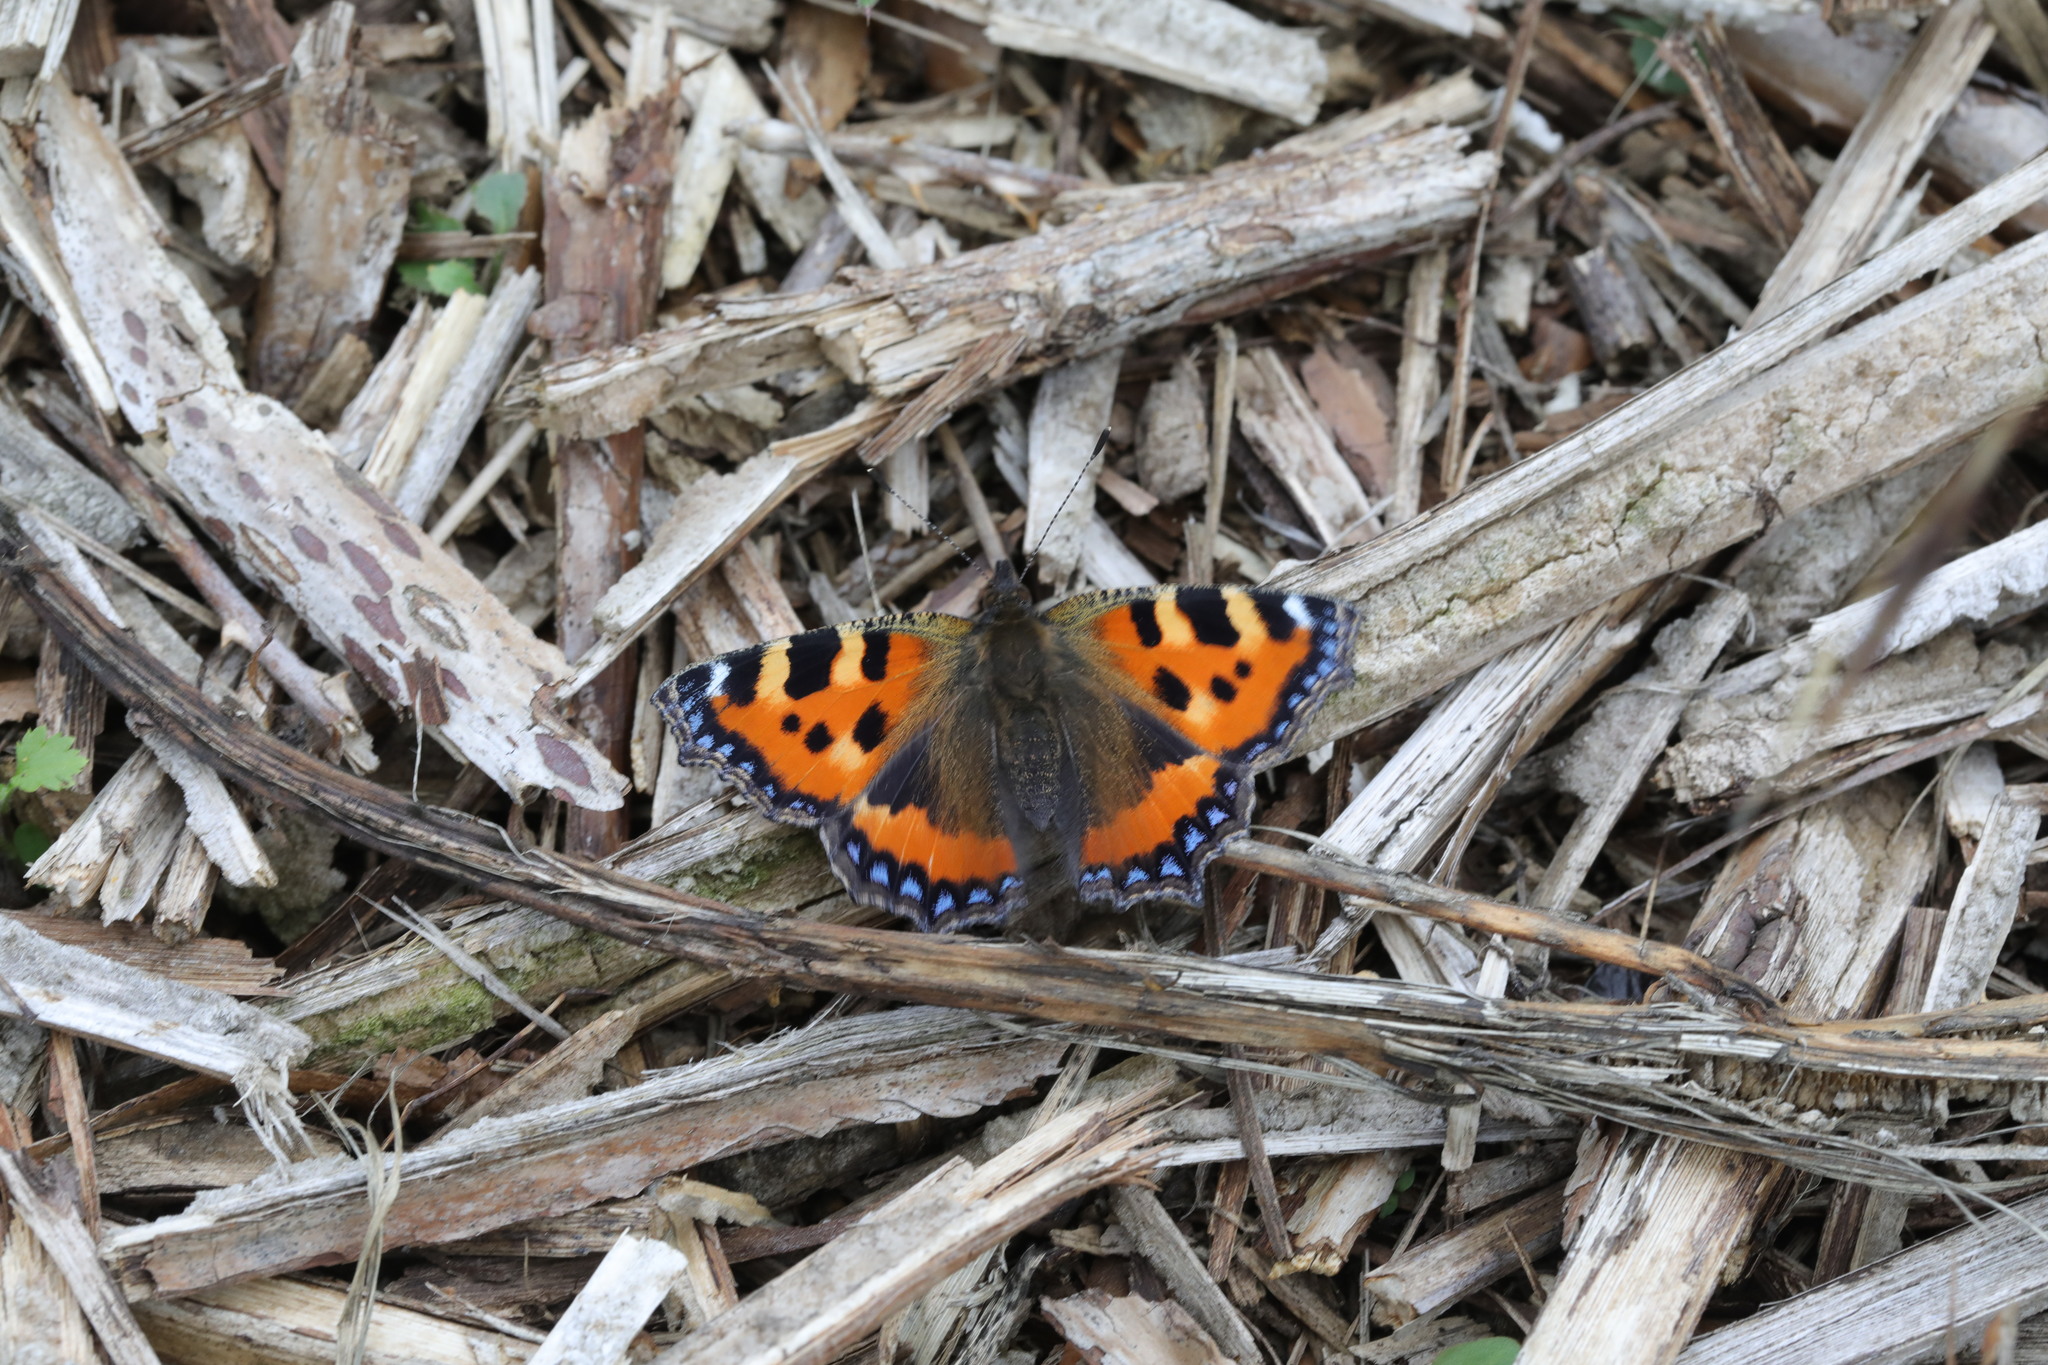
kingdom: Animalia
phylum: Arthropoda
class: Insecta
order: Lepidoptera
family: Nymphalidae
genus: Aglais
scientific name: Aglais urticae
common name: Small tortoiseshell
